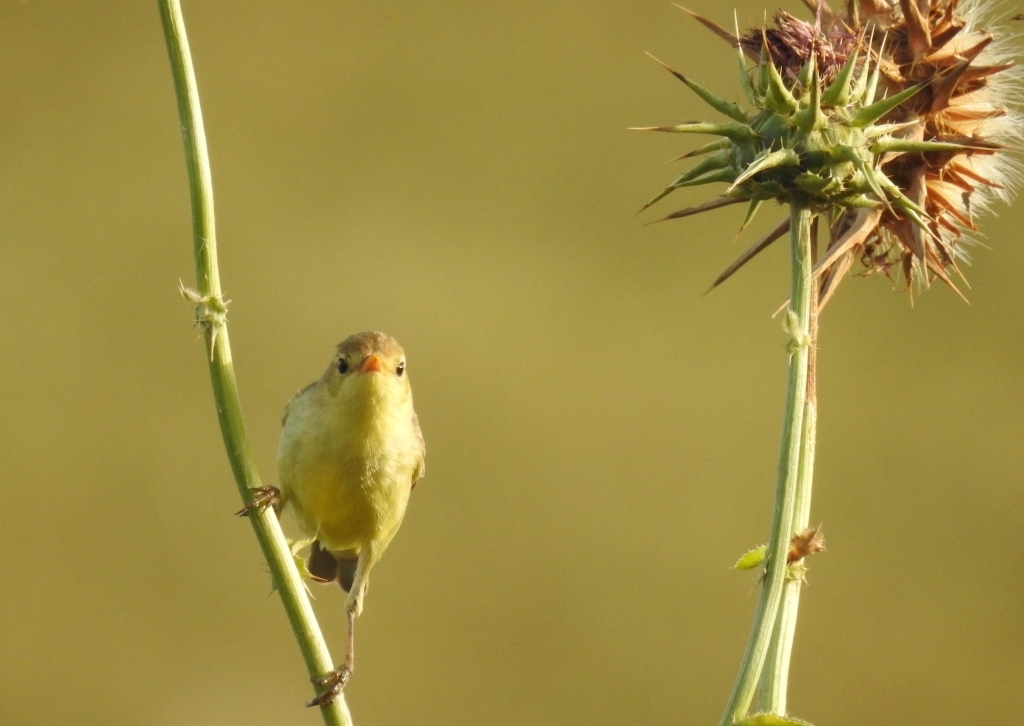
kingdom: Animalia
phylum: Chordata
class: Aves
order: Passeriformes
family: Acrocephalidae
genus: Hippolais
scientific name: Hippolais polyglotta
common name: Melodious warbler
